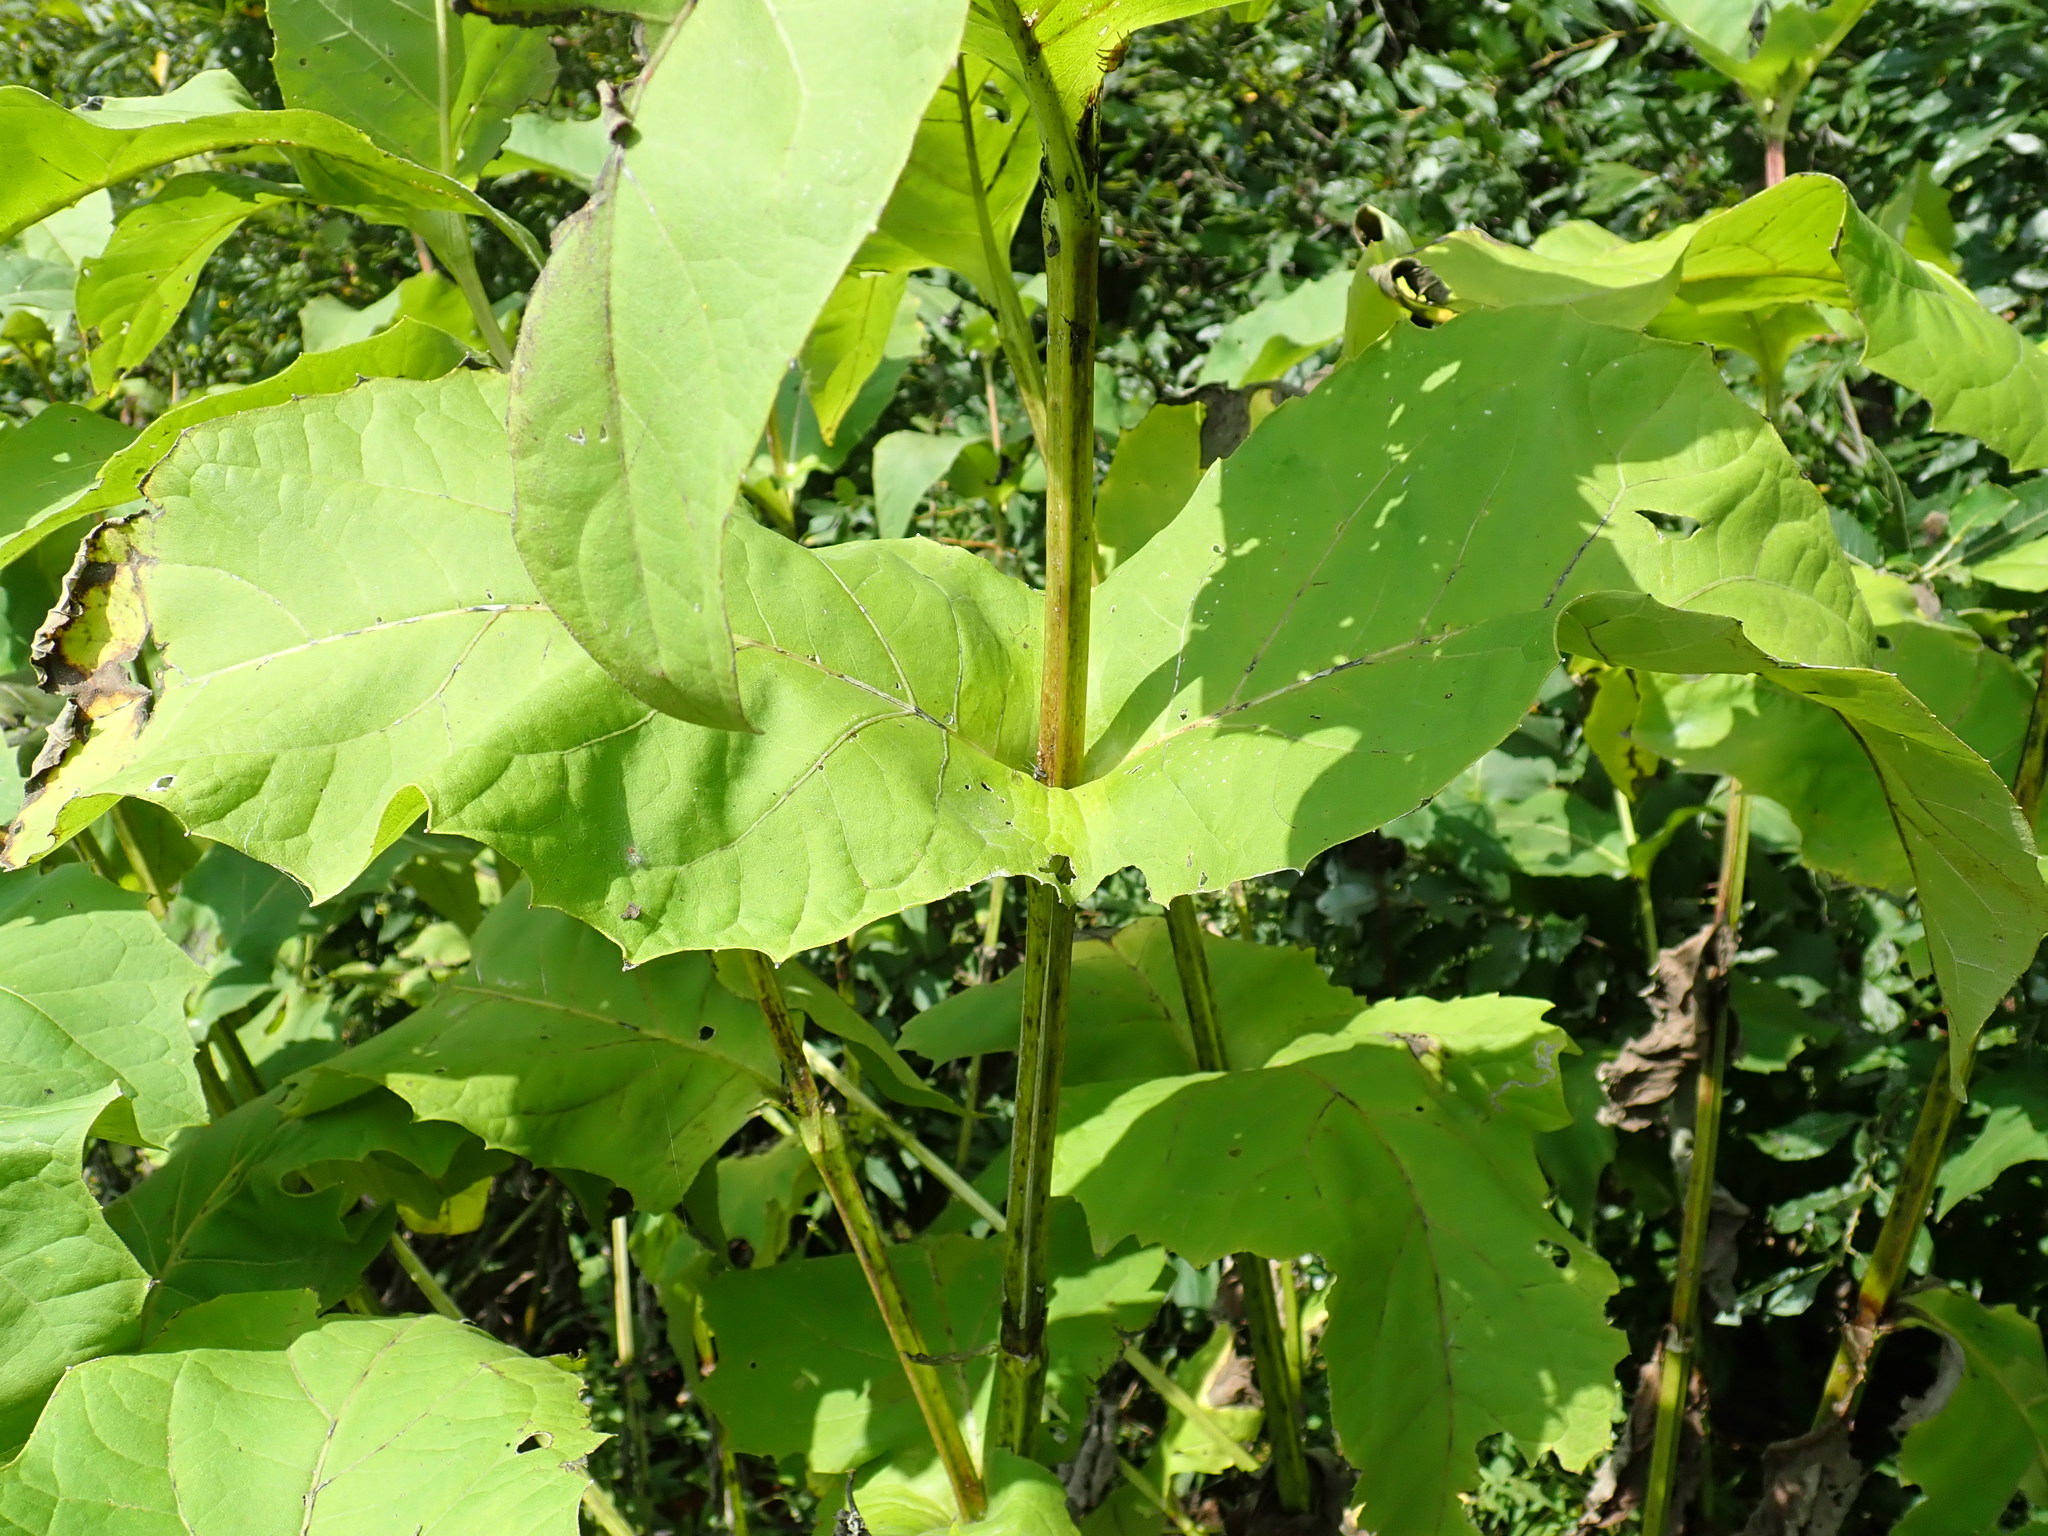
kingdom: Plantae
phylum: Tracheophyta
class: Magnoliopsida
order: Asterales
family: Asteraceae
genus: Silphium
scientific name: Silphium perfoliatum
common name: Cup-plant
